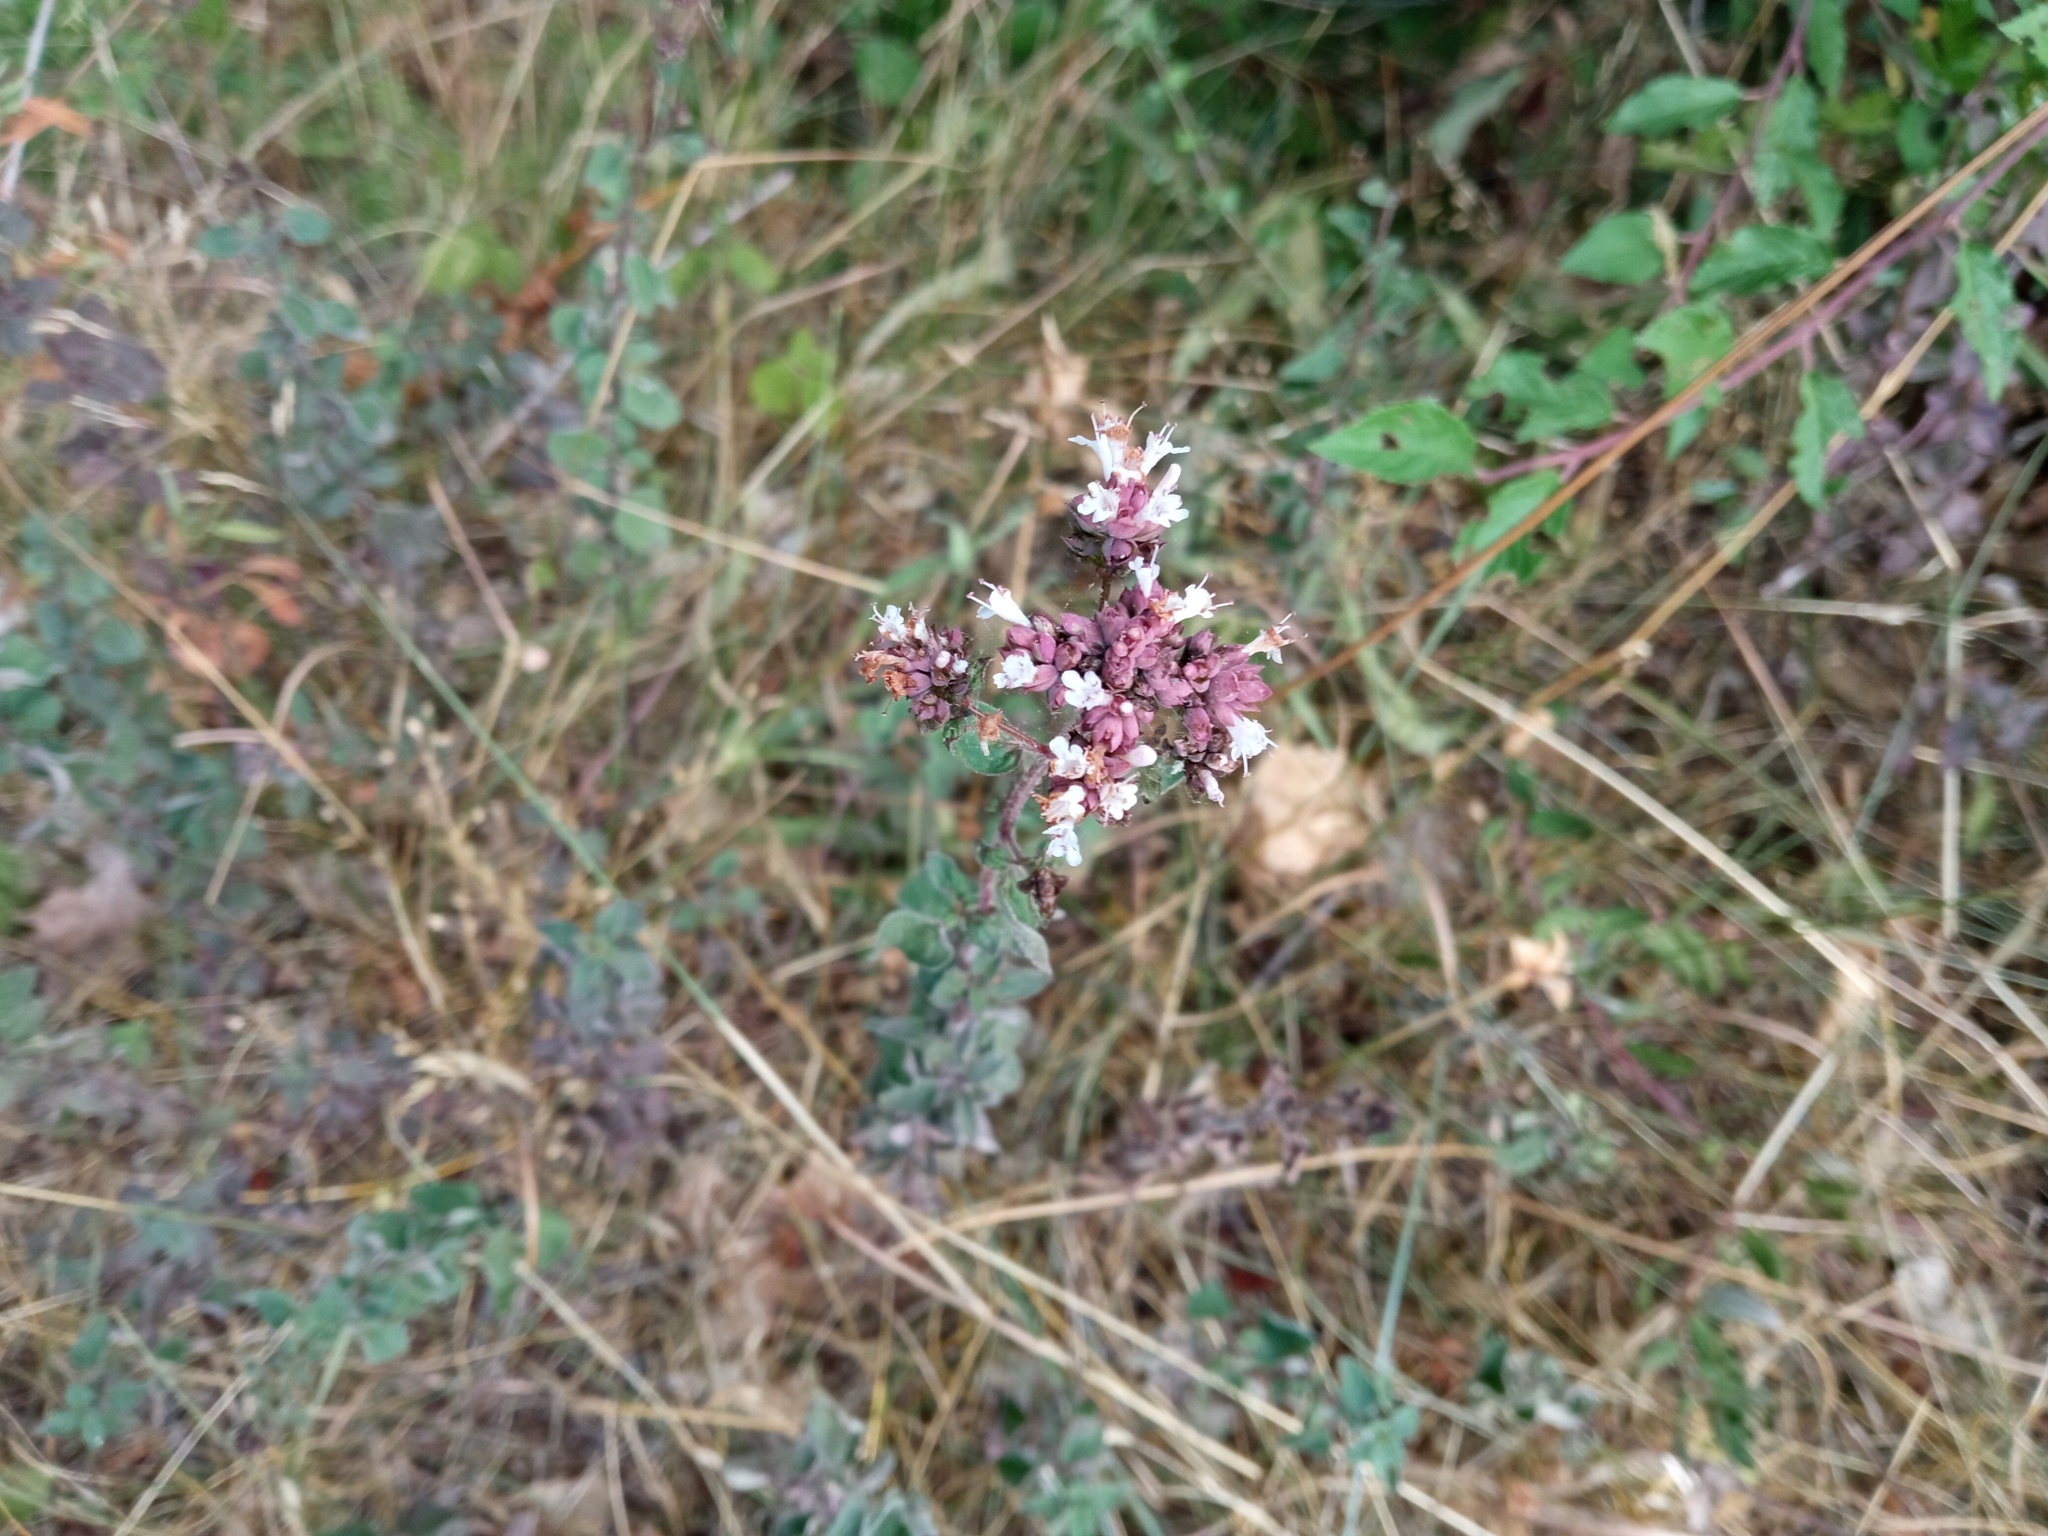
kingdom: Plantae
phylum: Tracheophyta
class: Magnoliopsida
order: Lamiales
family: Lamiaceae
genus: Origanum
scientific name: Origanum vulgare
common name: Wild marjoram
